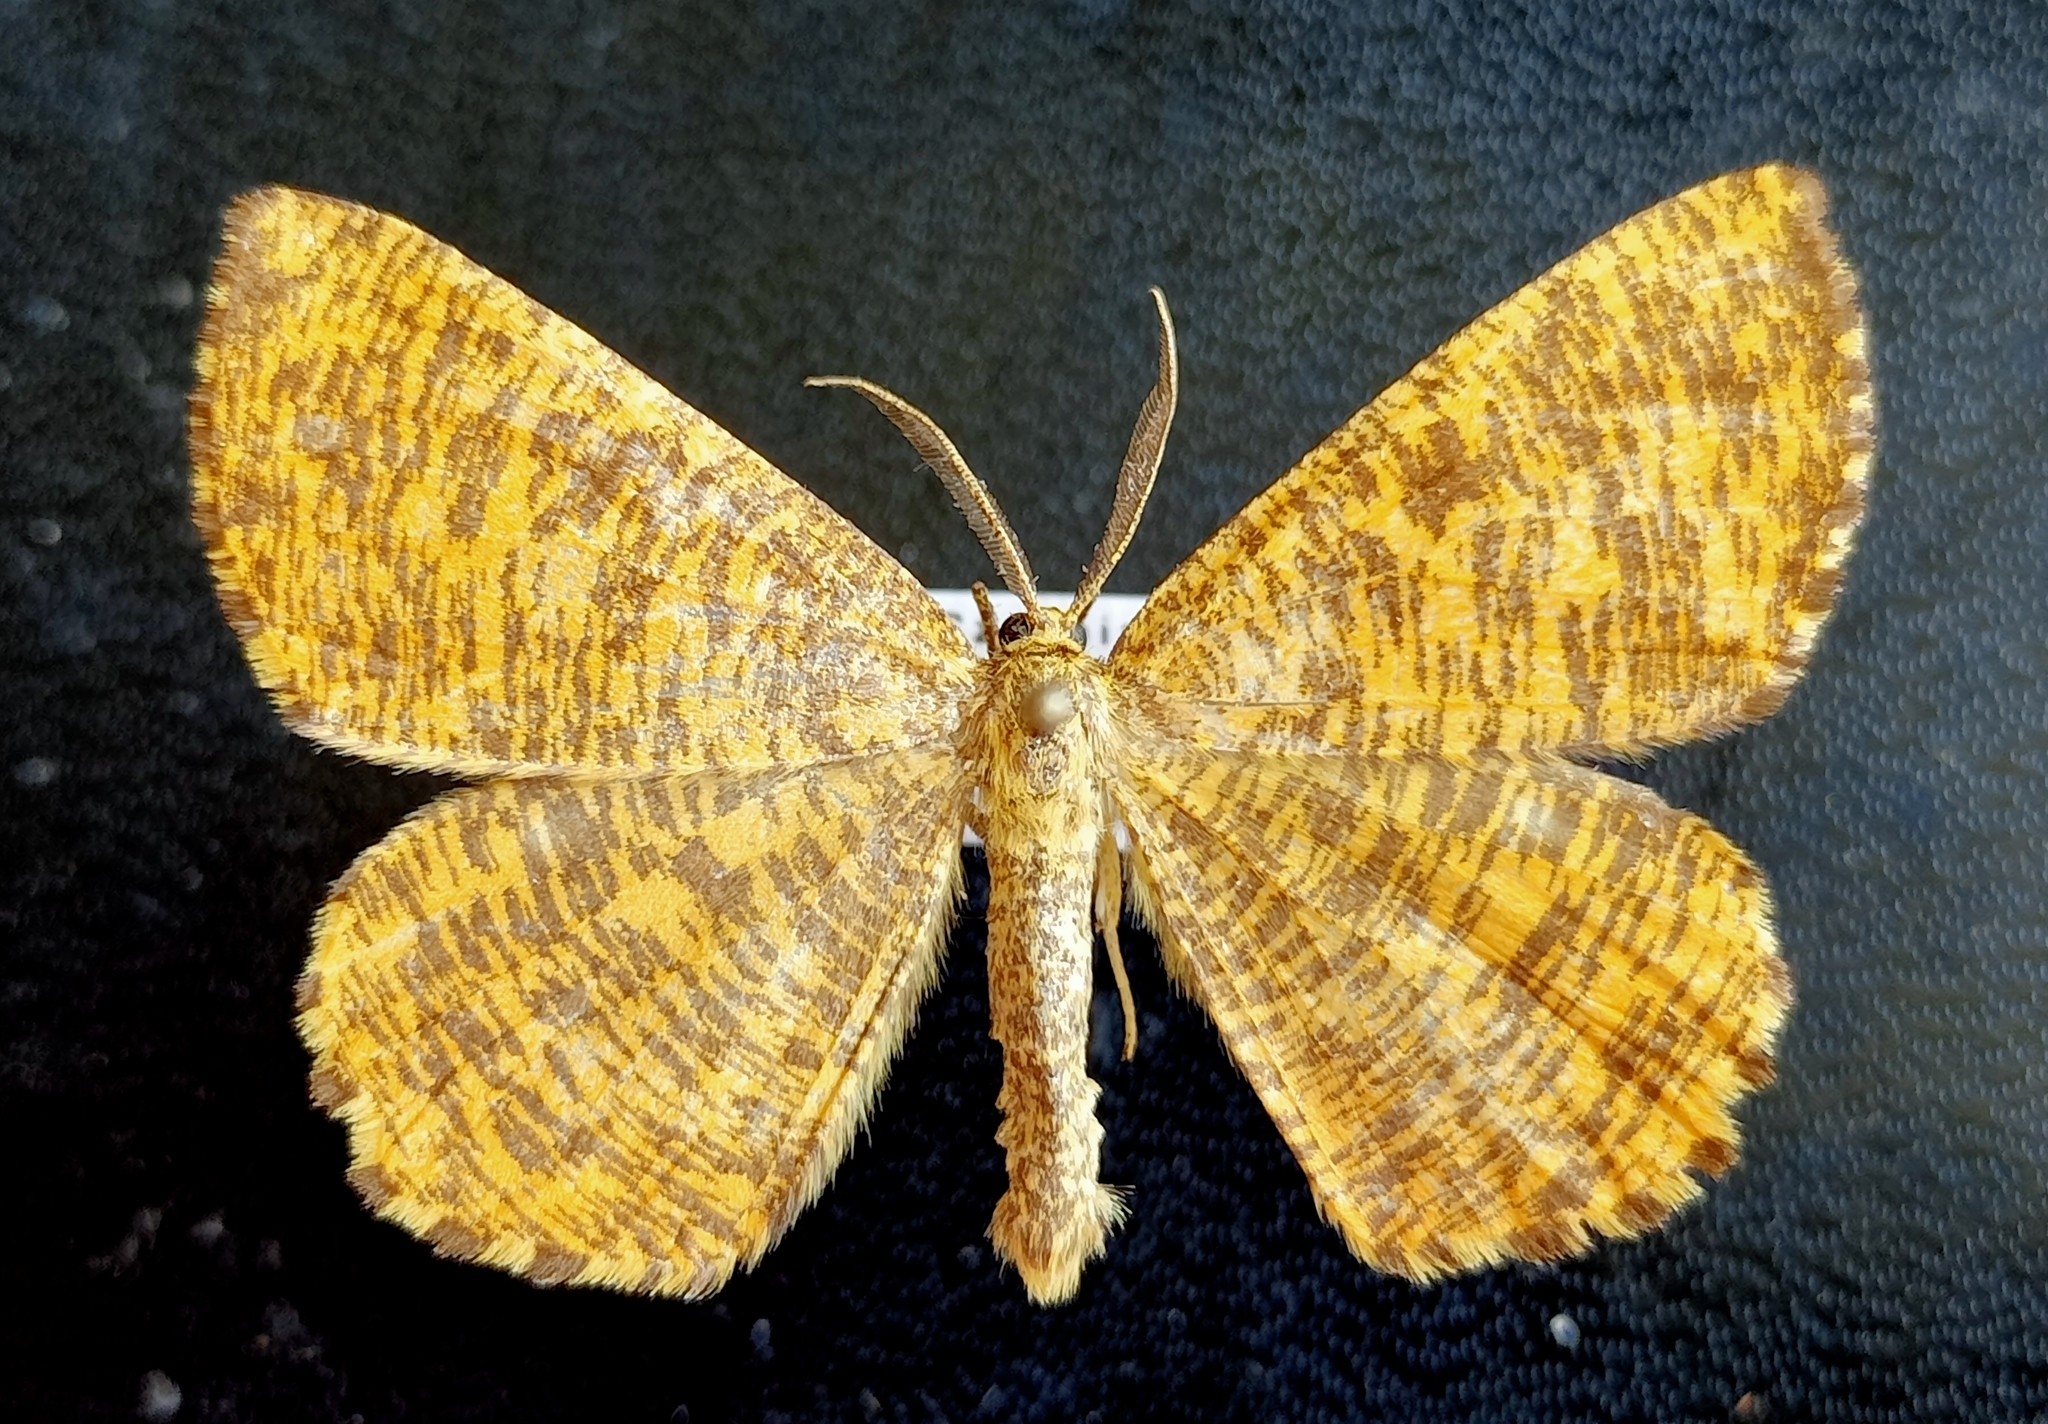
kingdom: Animalia
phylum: Arthropoda
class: Insecta
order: Lepidoptera
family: Geometridae
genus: Angerona
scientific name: Angerona prunaria
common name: Orange moth
